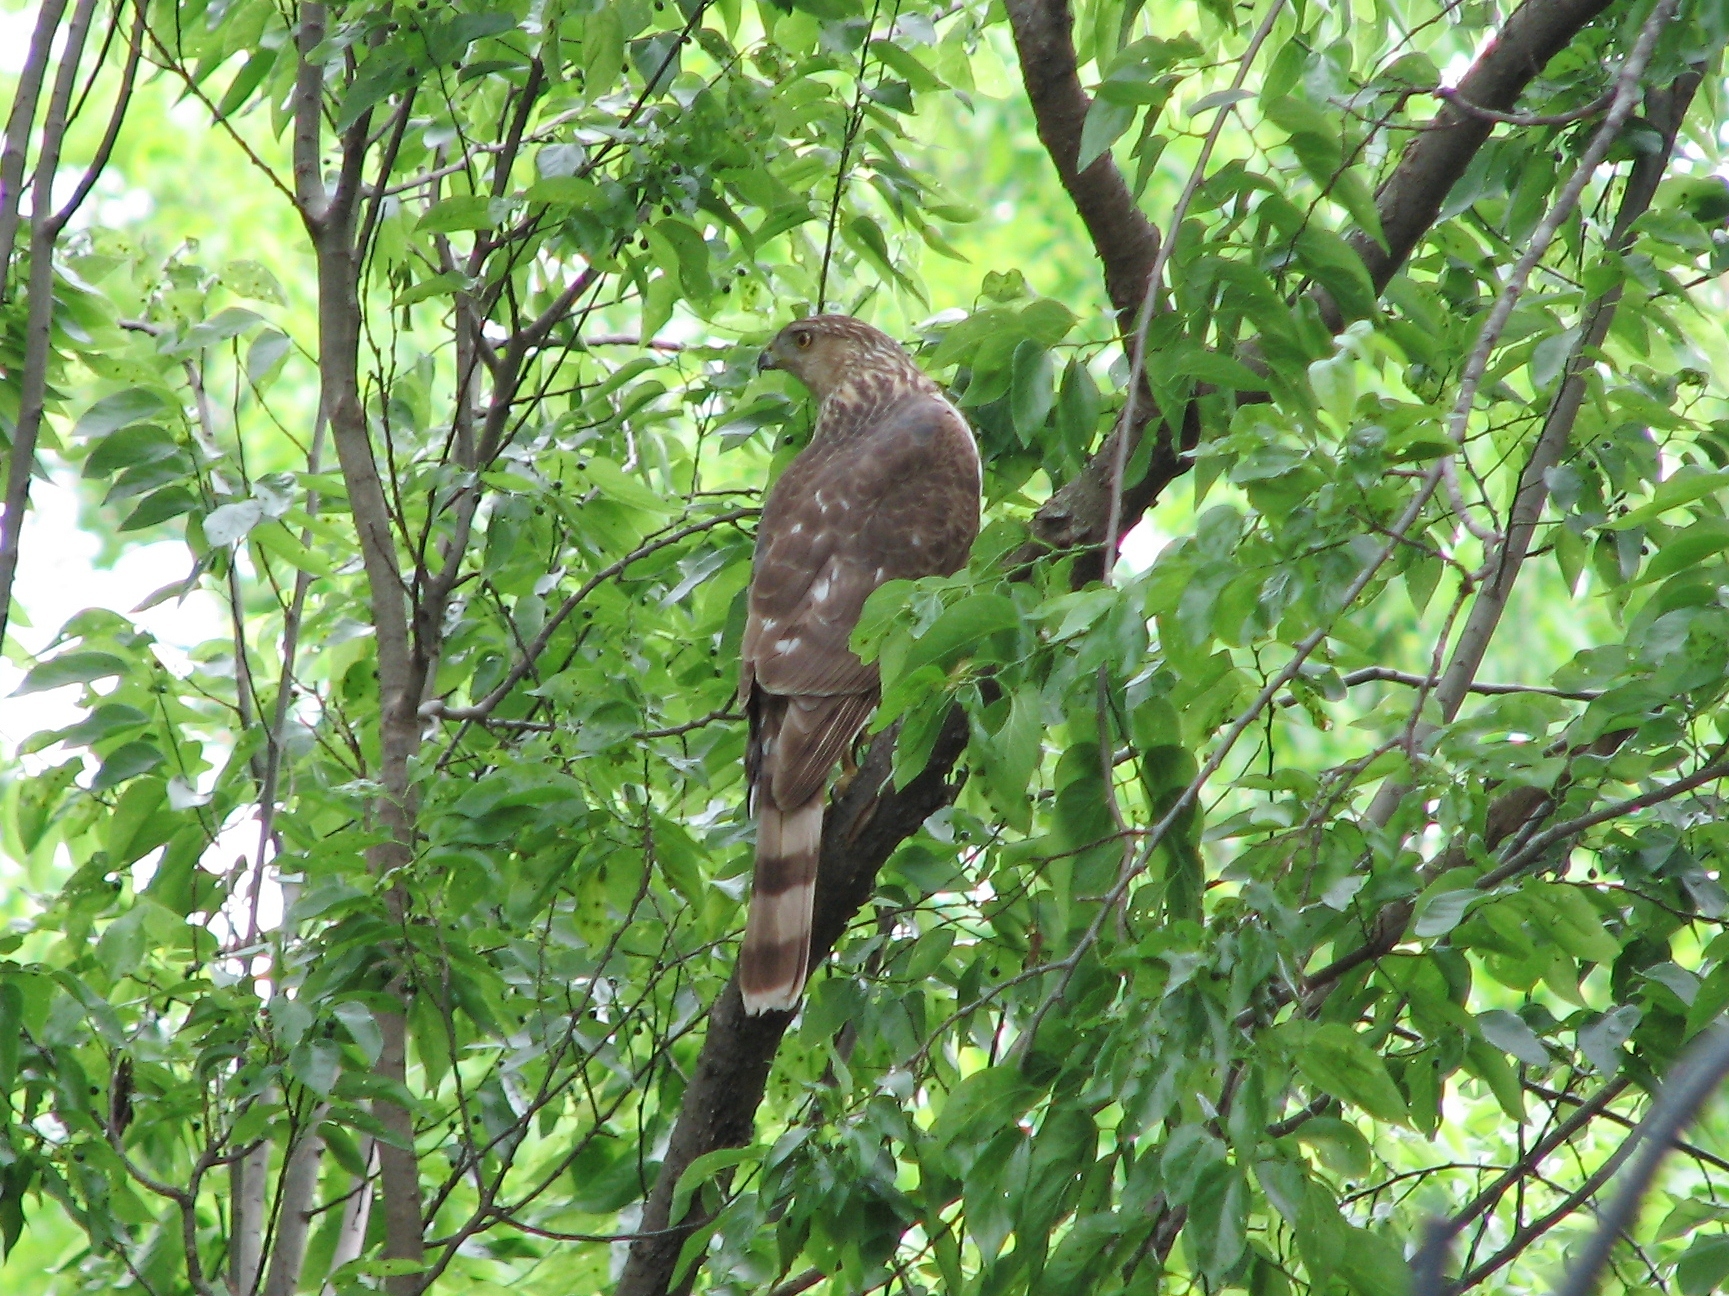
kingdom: Animalia
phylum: Chordata
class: Aves
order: Accipitriformes
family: Accipitridae
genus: Accipiter
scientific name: Accipiter cooperii
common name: Cooper's hawk
